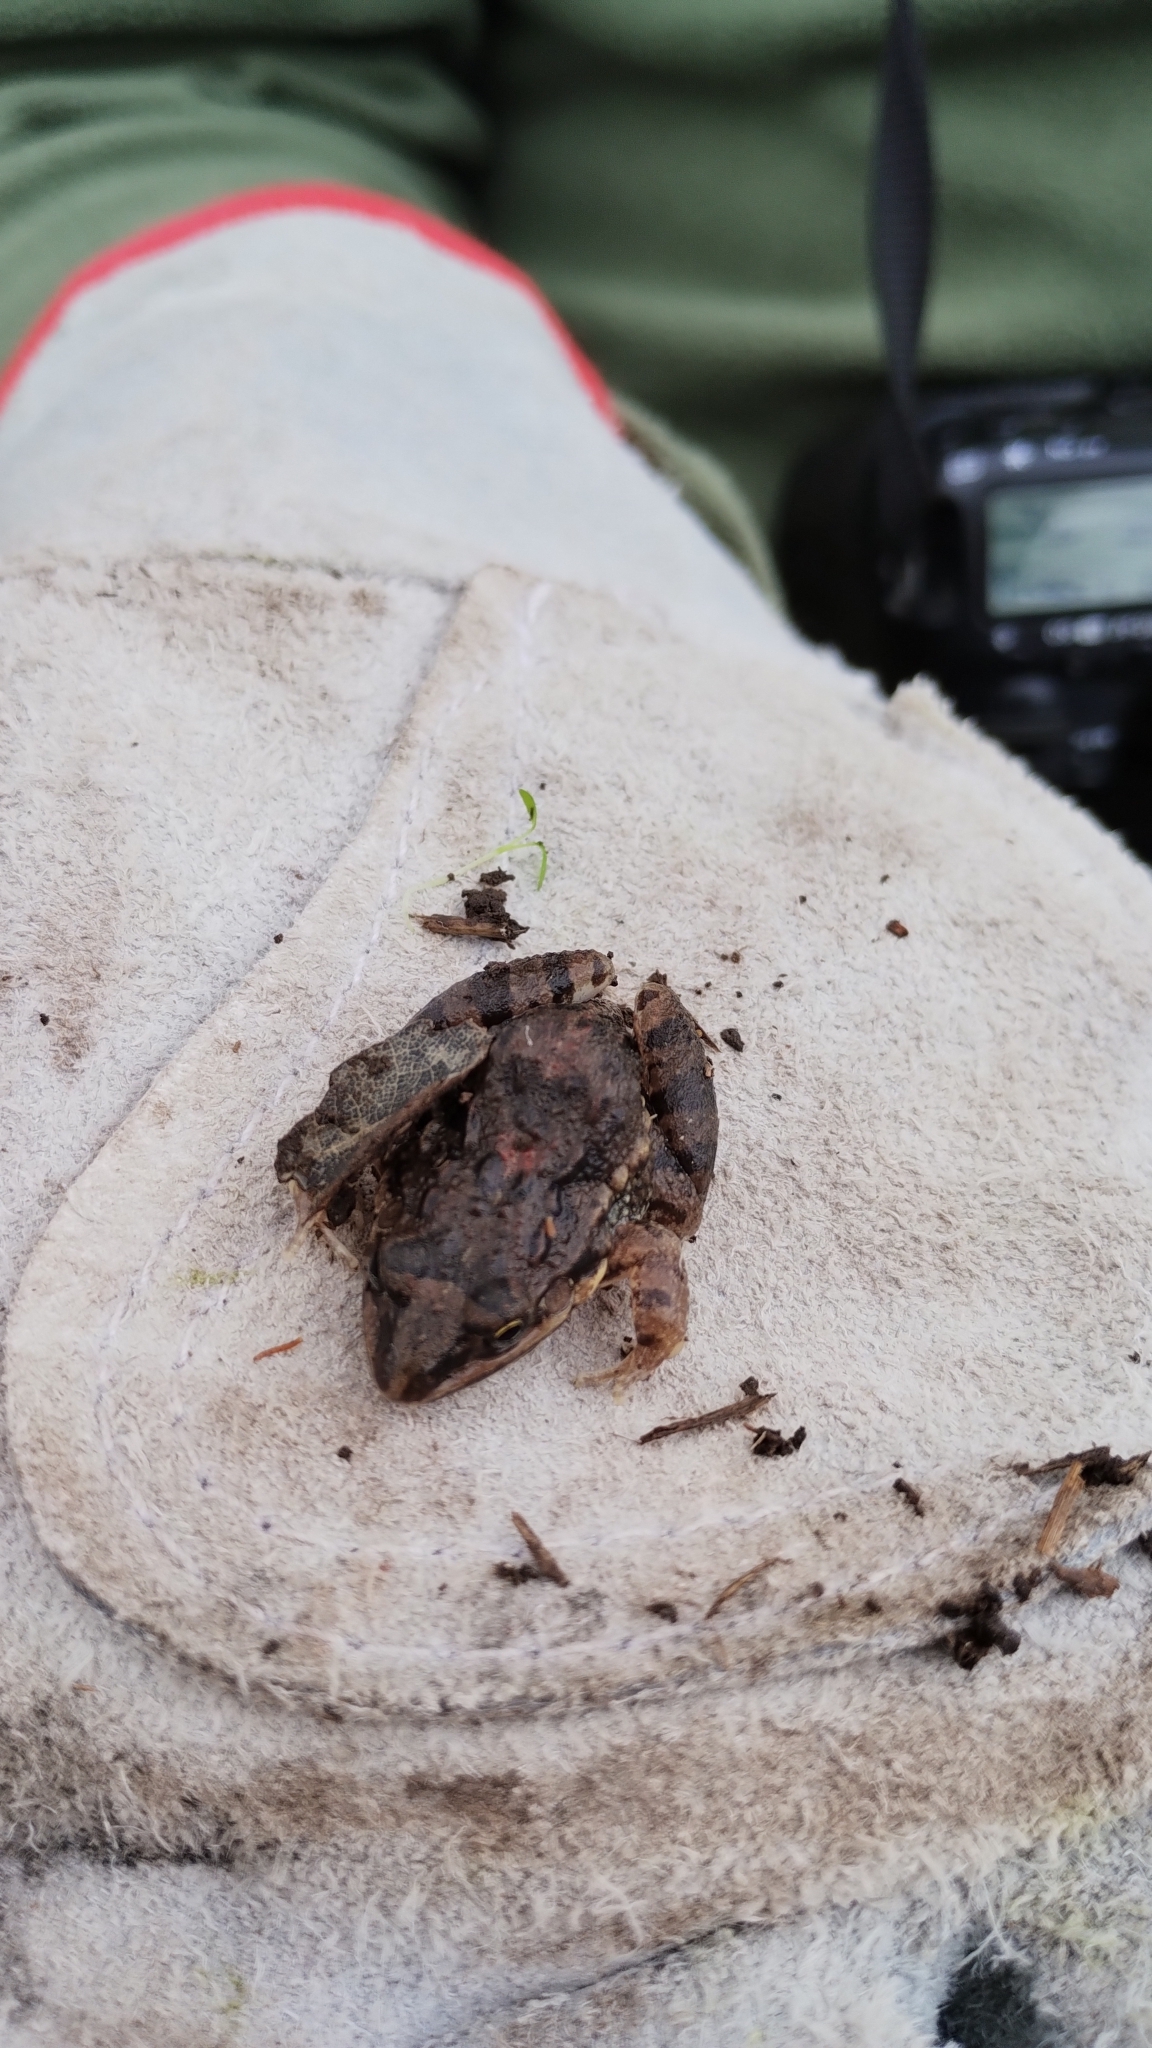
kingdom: Animalia
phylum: Chordata
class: Amphibia
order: Anura
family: Leptodactylidae
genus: Leptodactylus
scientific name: Leptodactylus latinasus
